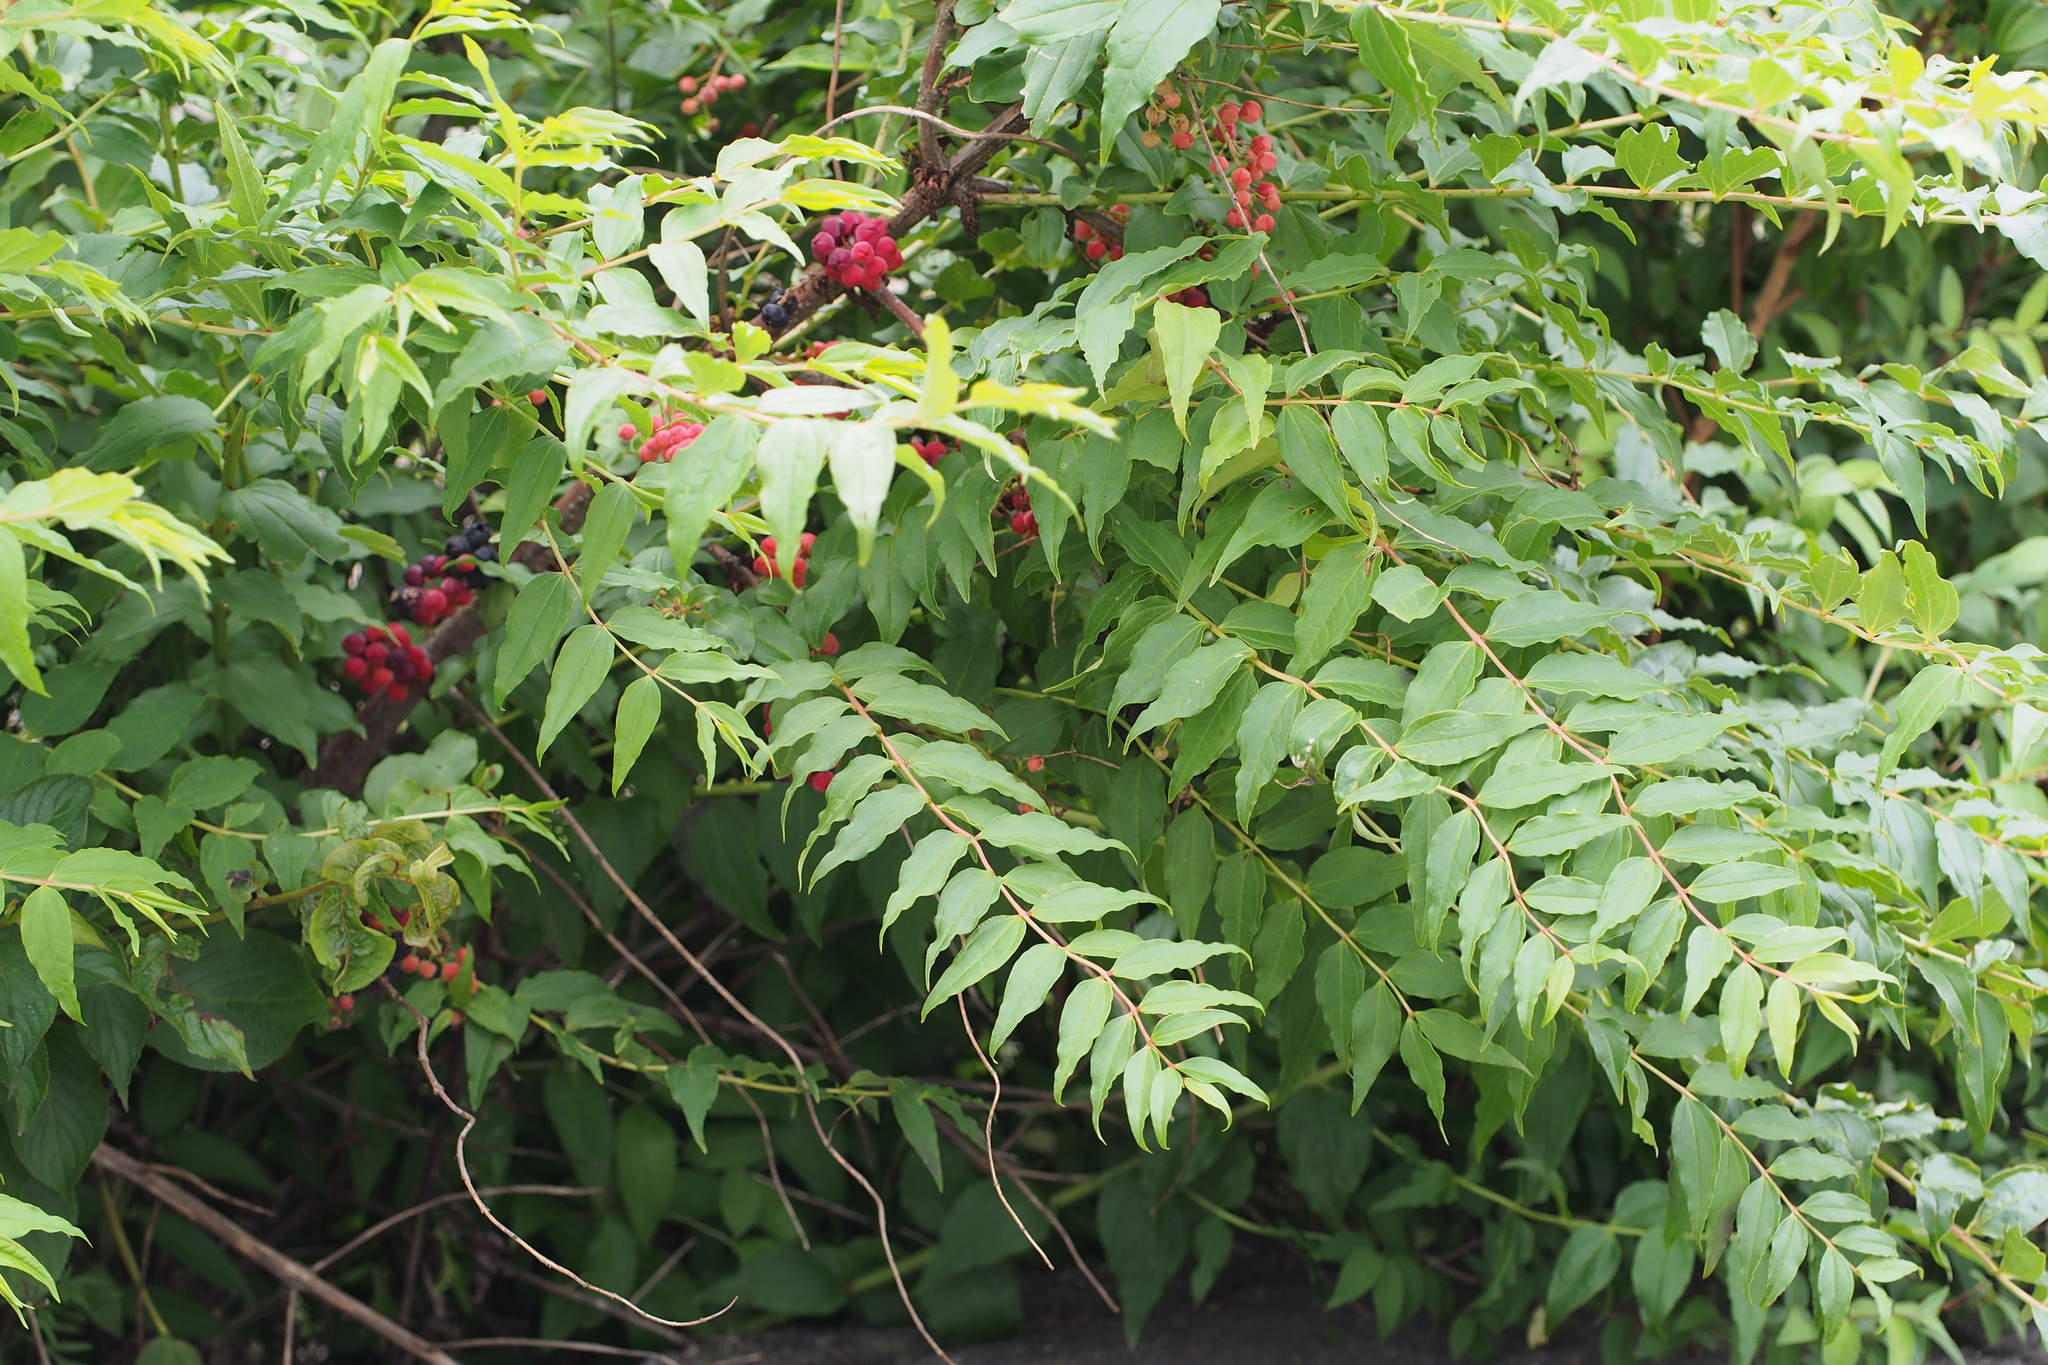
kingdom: Plantae
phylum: Tracheophyta
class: Magnoliopsida
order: Cucurbitales
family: Coriariaceae
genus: Coriaria
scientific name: Coriaria japonica
